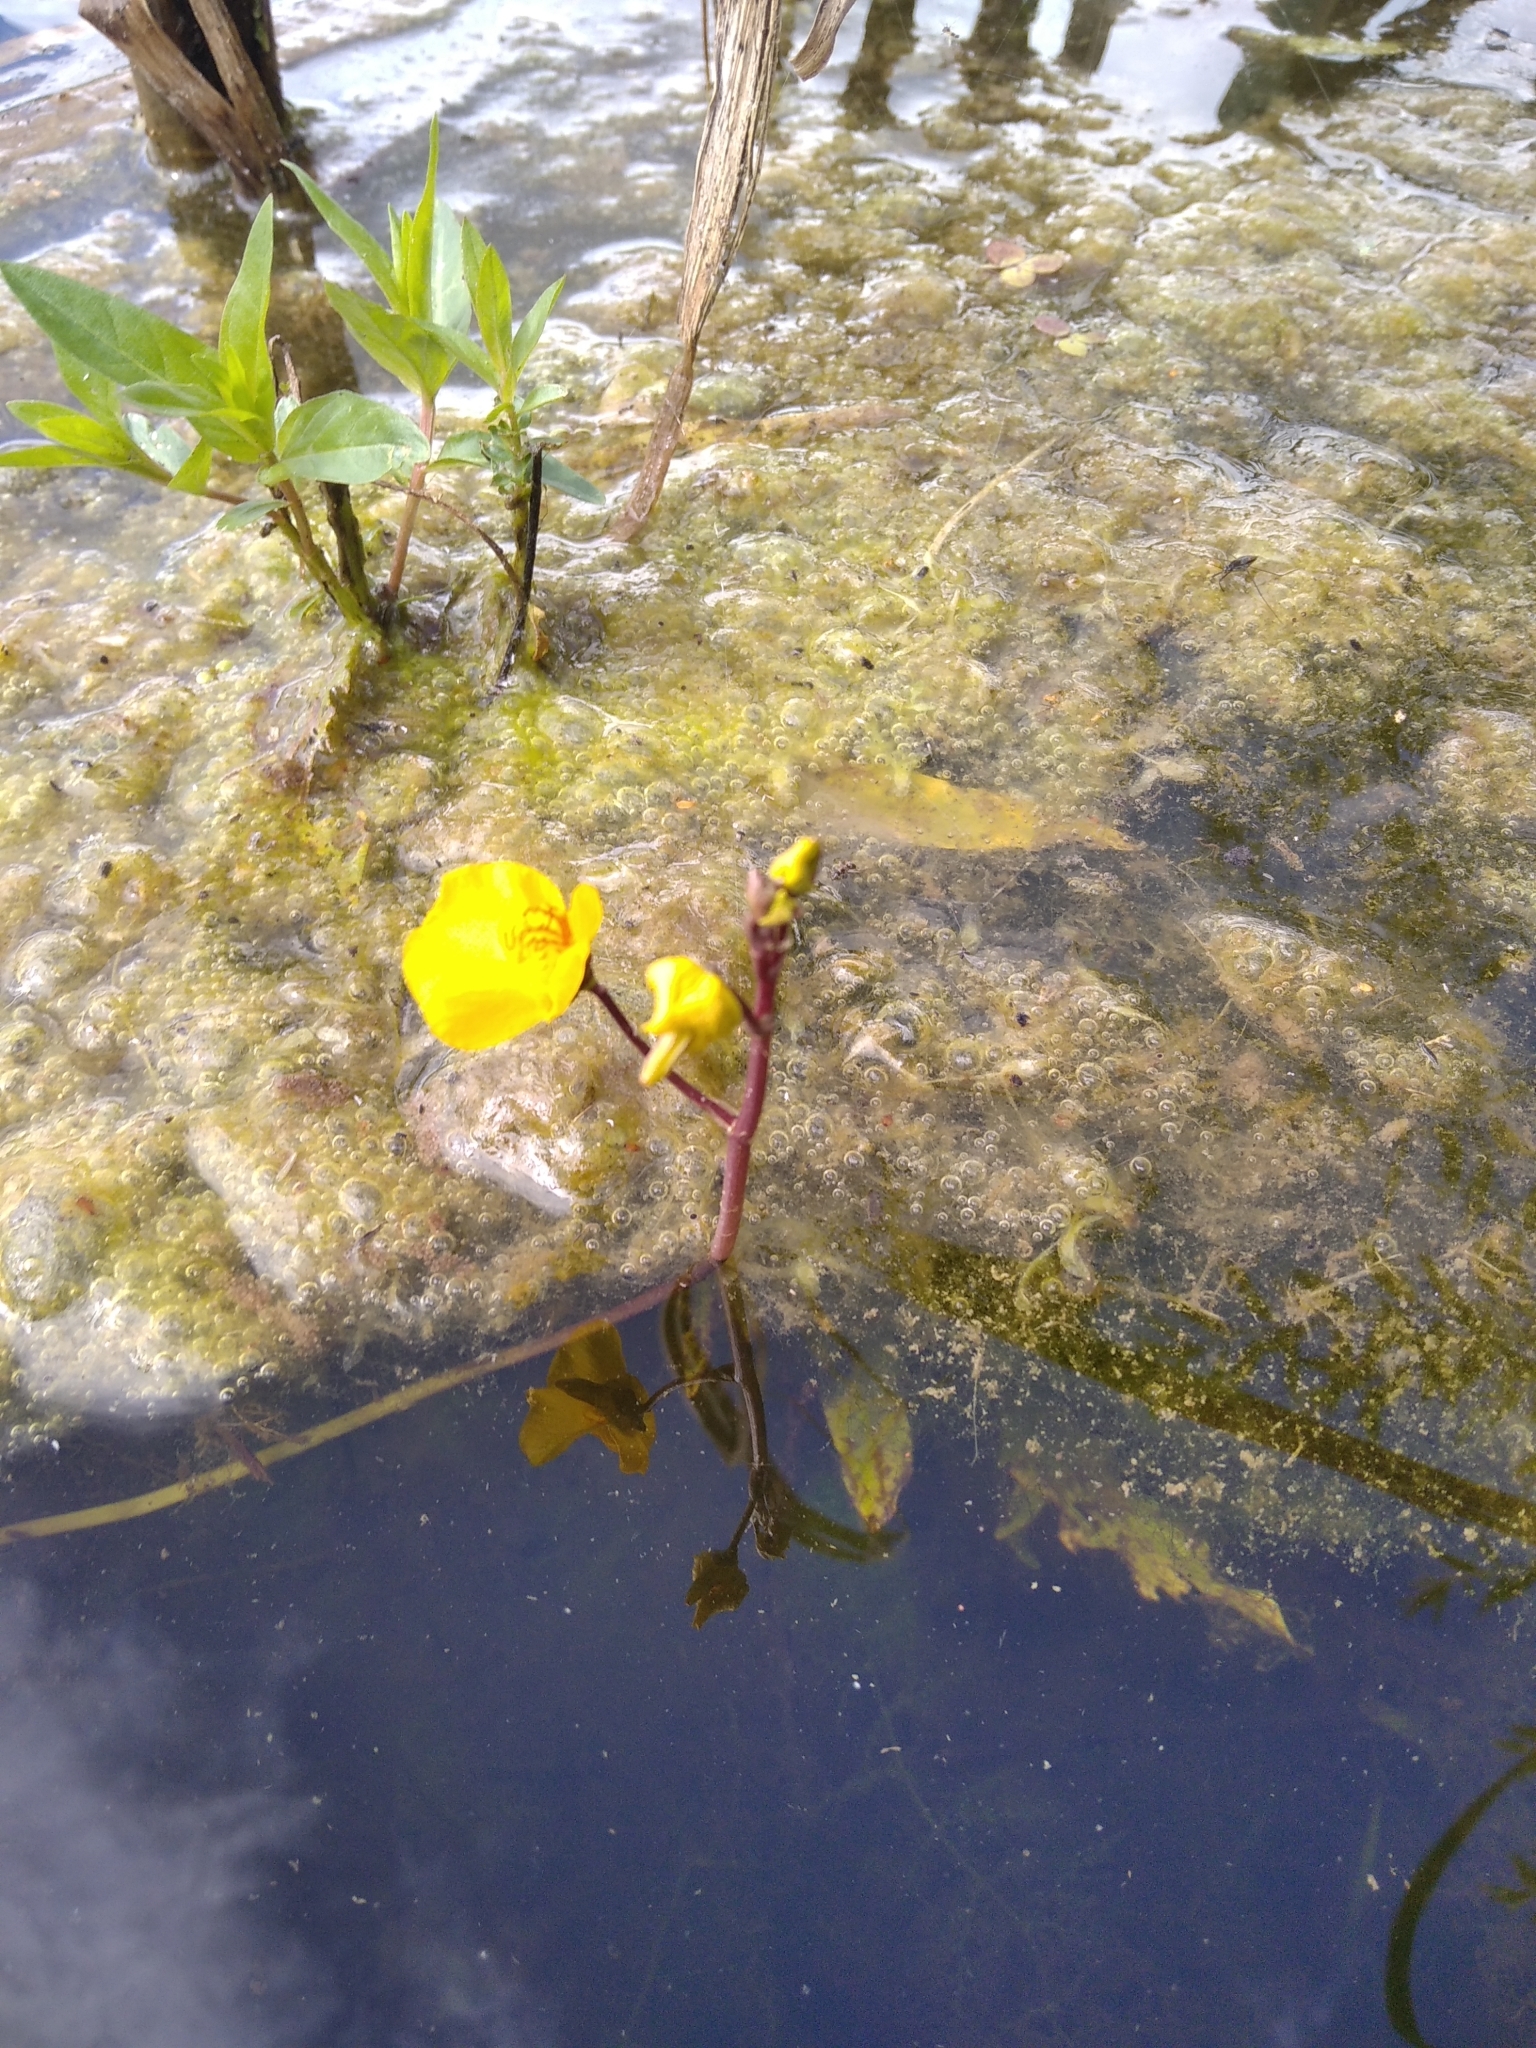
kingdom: Plantae
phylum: Tracheophyta
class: Magnoliopsida
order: Lamiales
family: Lentibulariaceae
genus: Utricularia
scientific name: Utricularia australis
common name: Bladderwort
